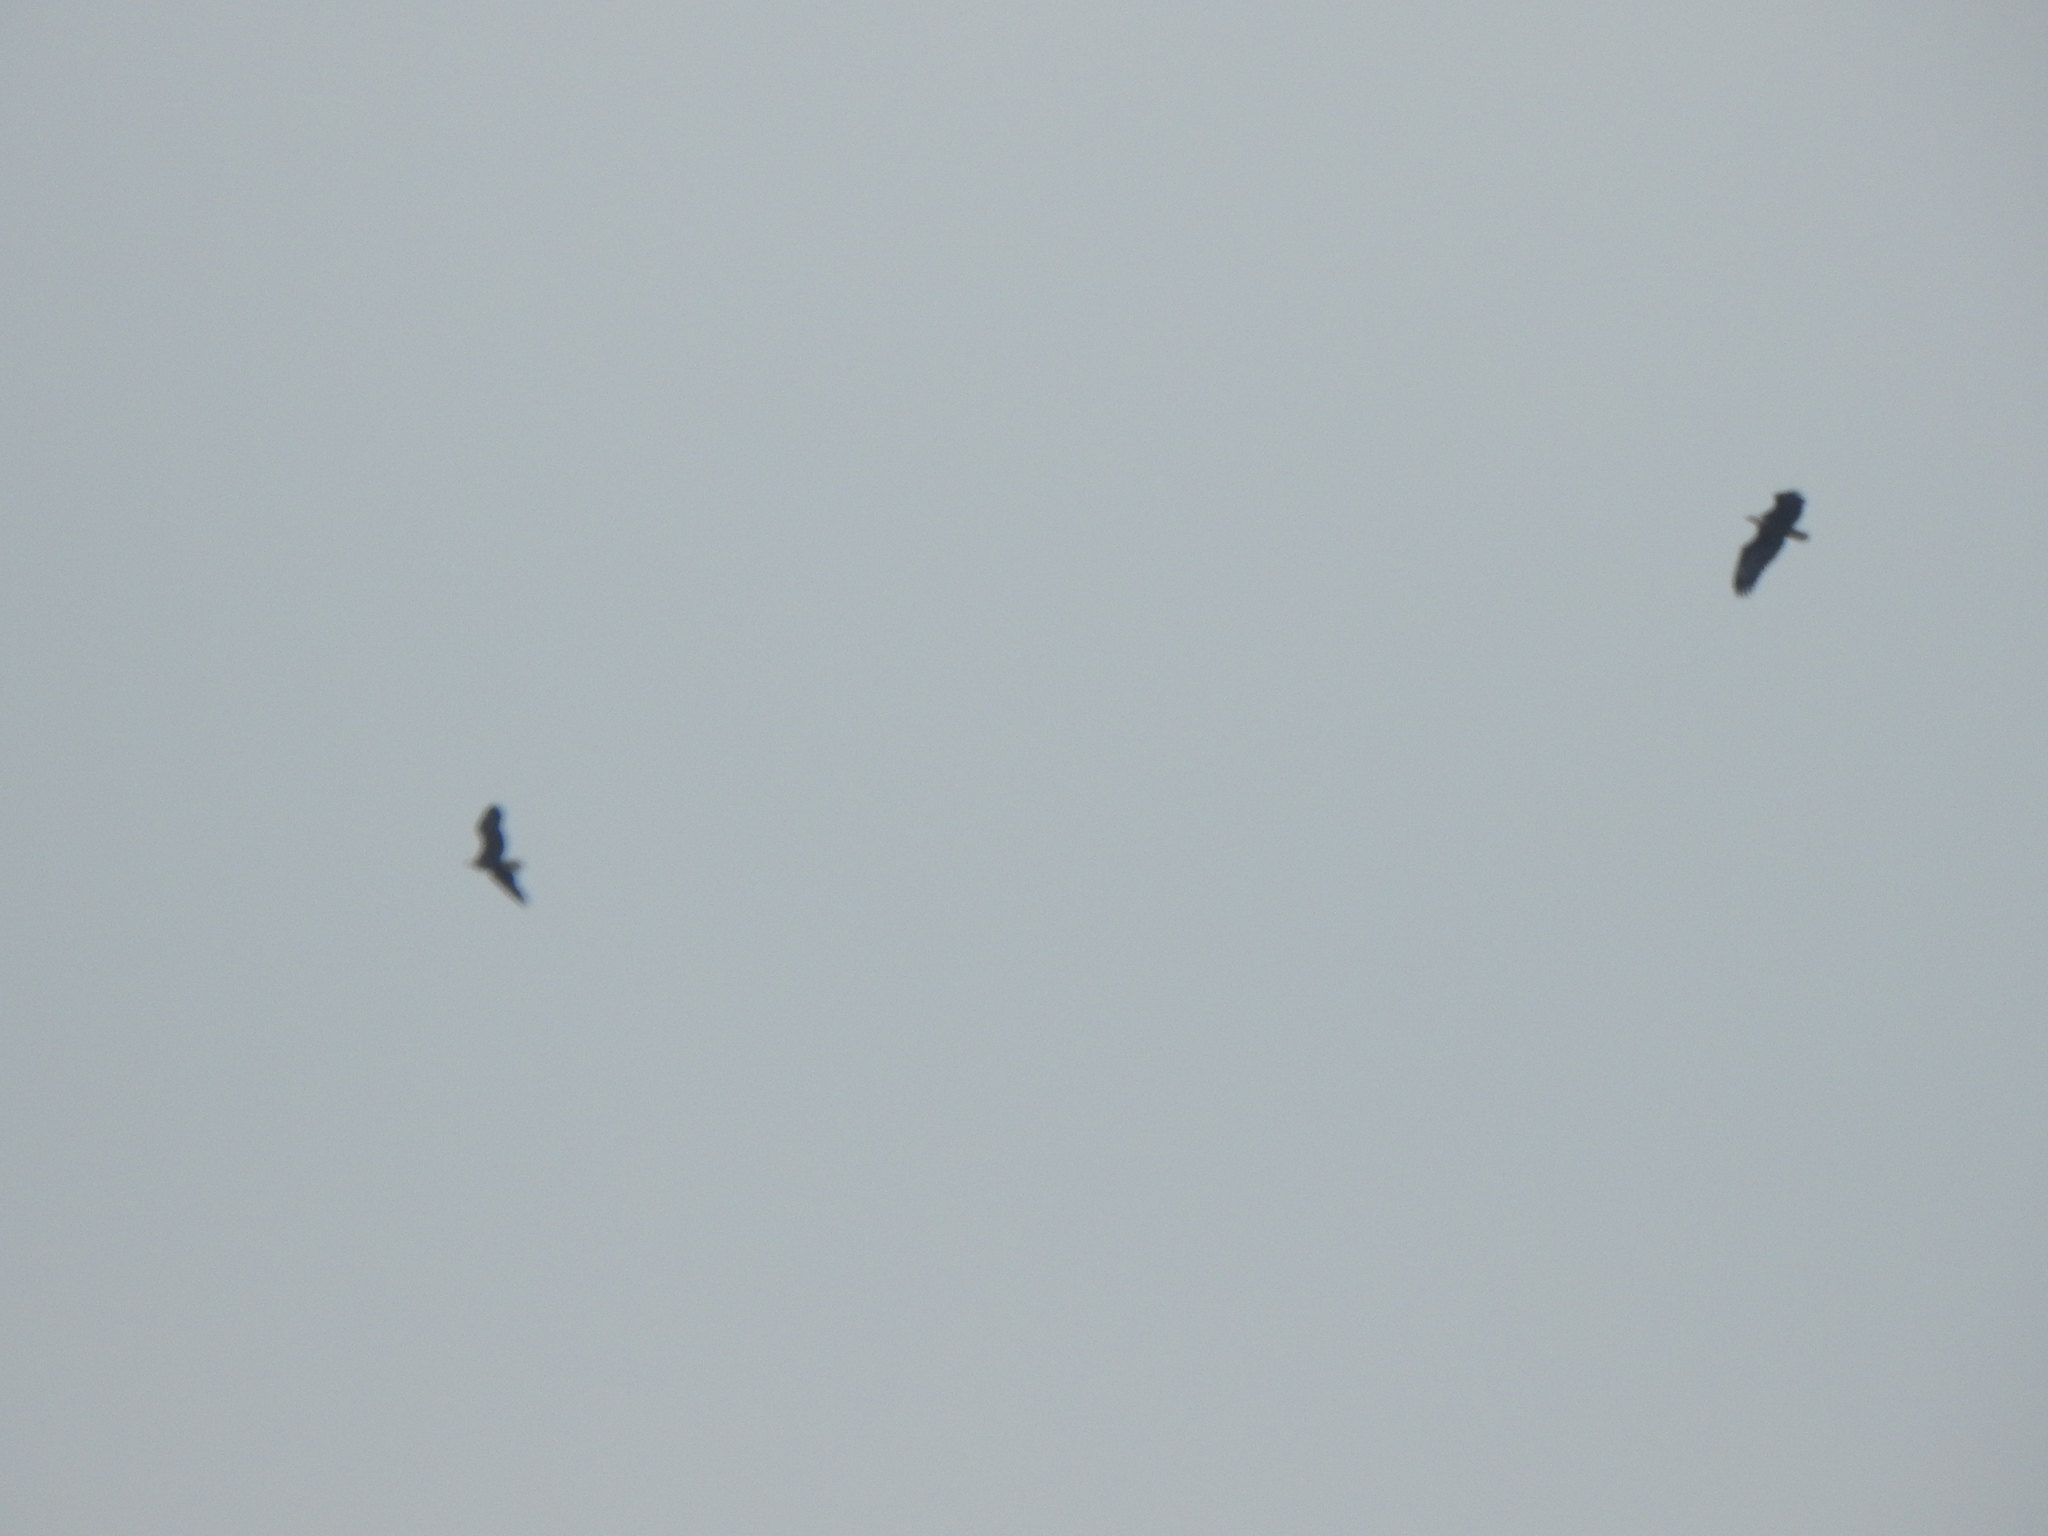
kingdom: Animalia
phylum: Chordata
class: Aves
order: Accipitriformes
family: Accipitridae
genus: Haliaeetus
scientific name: Haliaeetus leucocephalus
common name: Bald eagle
